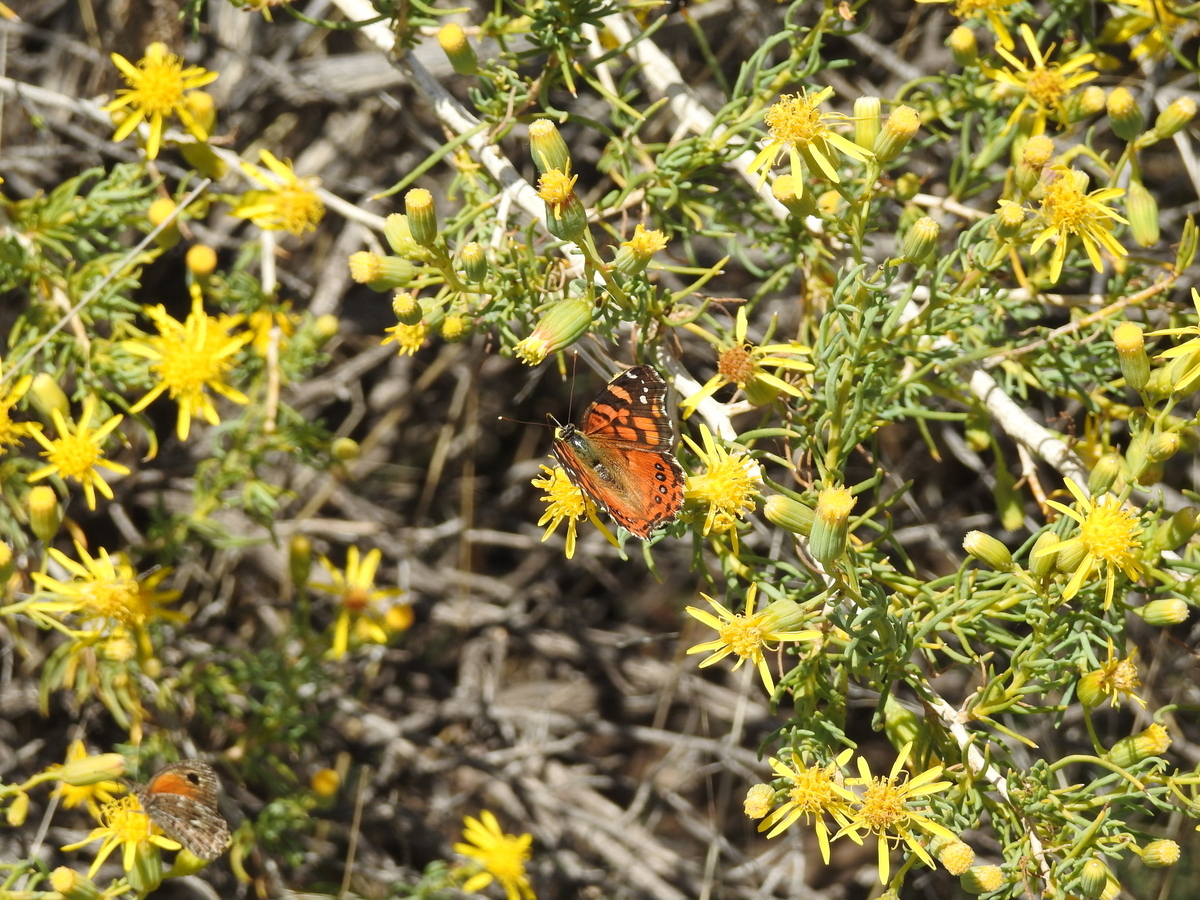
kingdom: Animalia
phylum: Arthropoda
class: Insecta
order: Lepidoptera
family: Nymphalidae
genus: Vanessa
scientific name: Vanessa carye
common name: Subtropical lady
